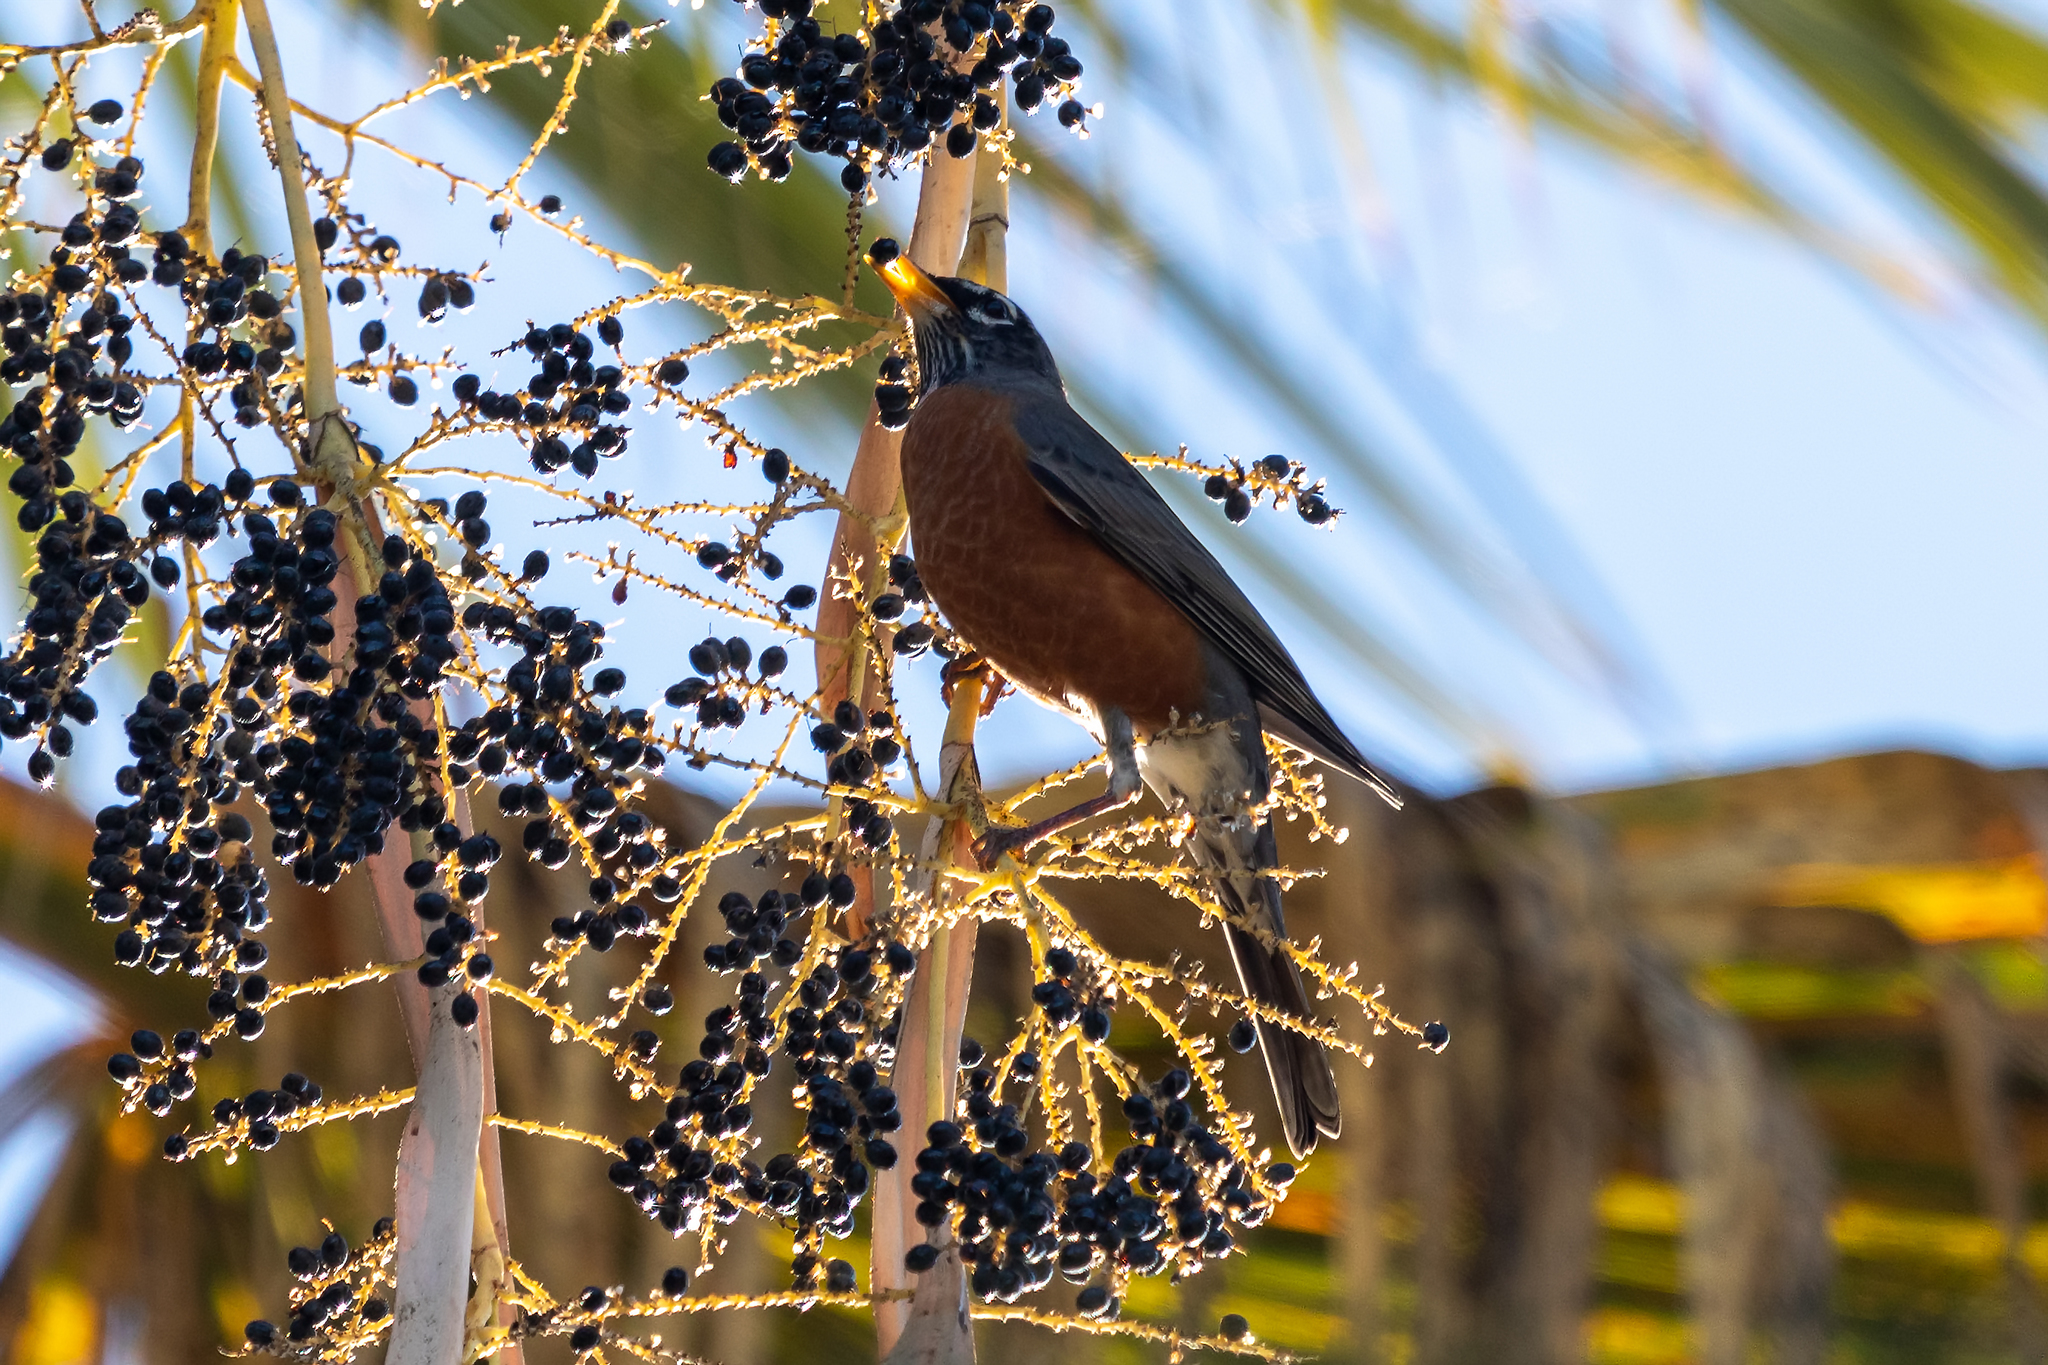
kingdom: Animalia
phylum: Chordata
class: Aves
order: Passeriformes
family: Turdidae
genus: Turdus
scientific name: Turdus migratorius
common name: American robin
